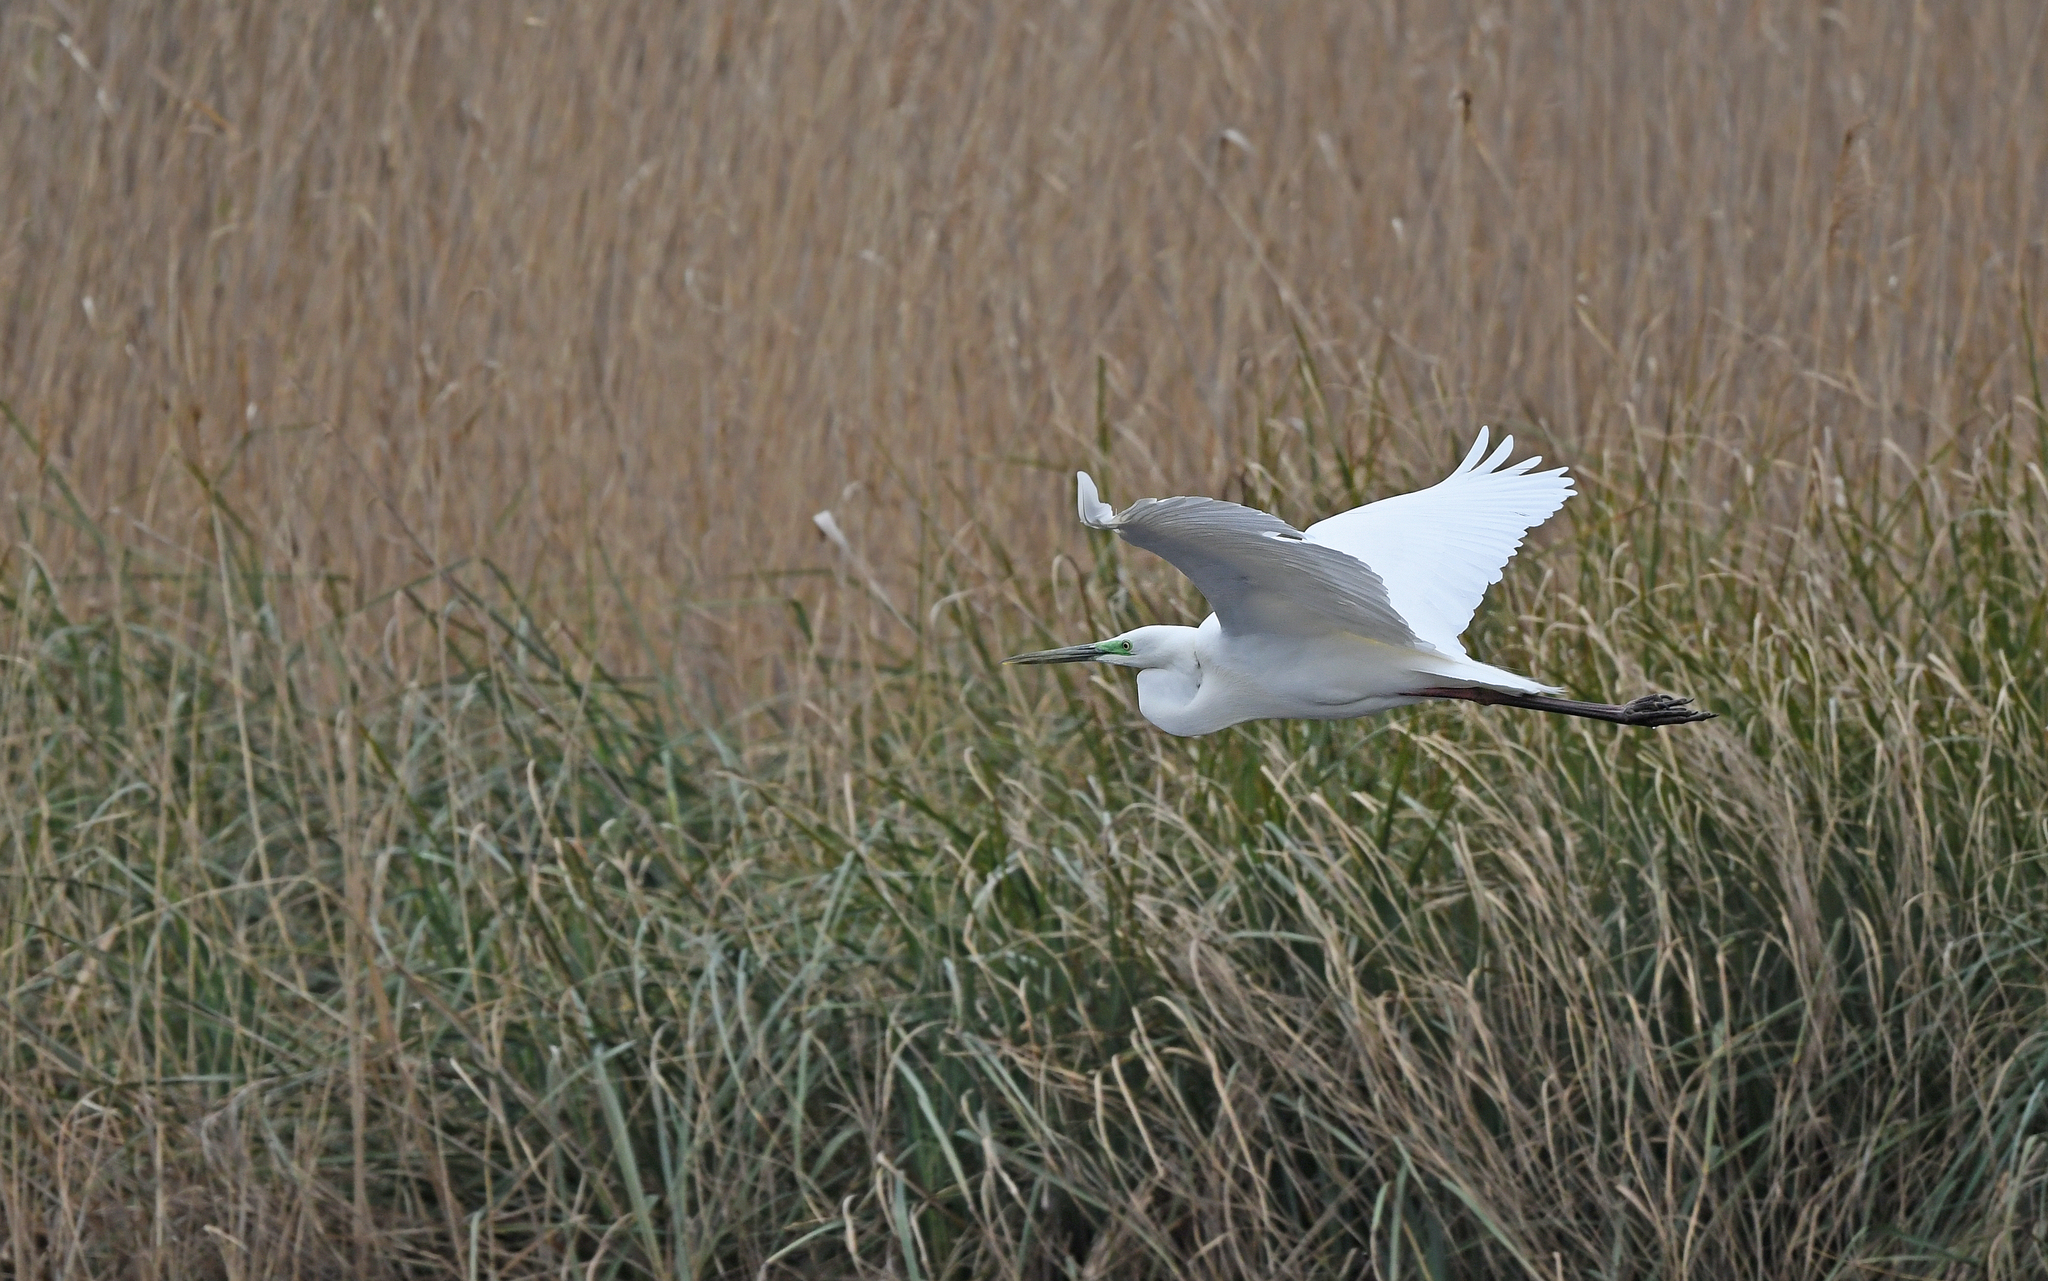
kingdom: Animalia
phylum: Chordata
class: Aves
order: Pelecaniformes
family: Ardeidae
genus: Ardea
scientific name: Ardea alba
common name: Great egret
